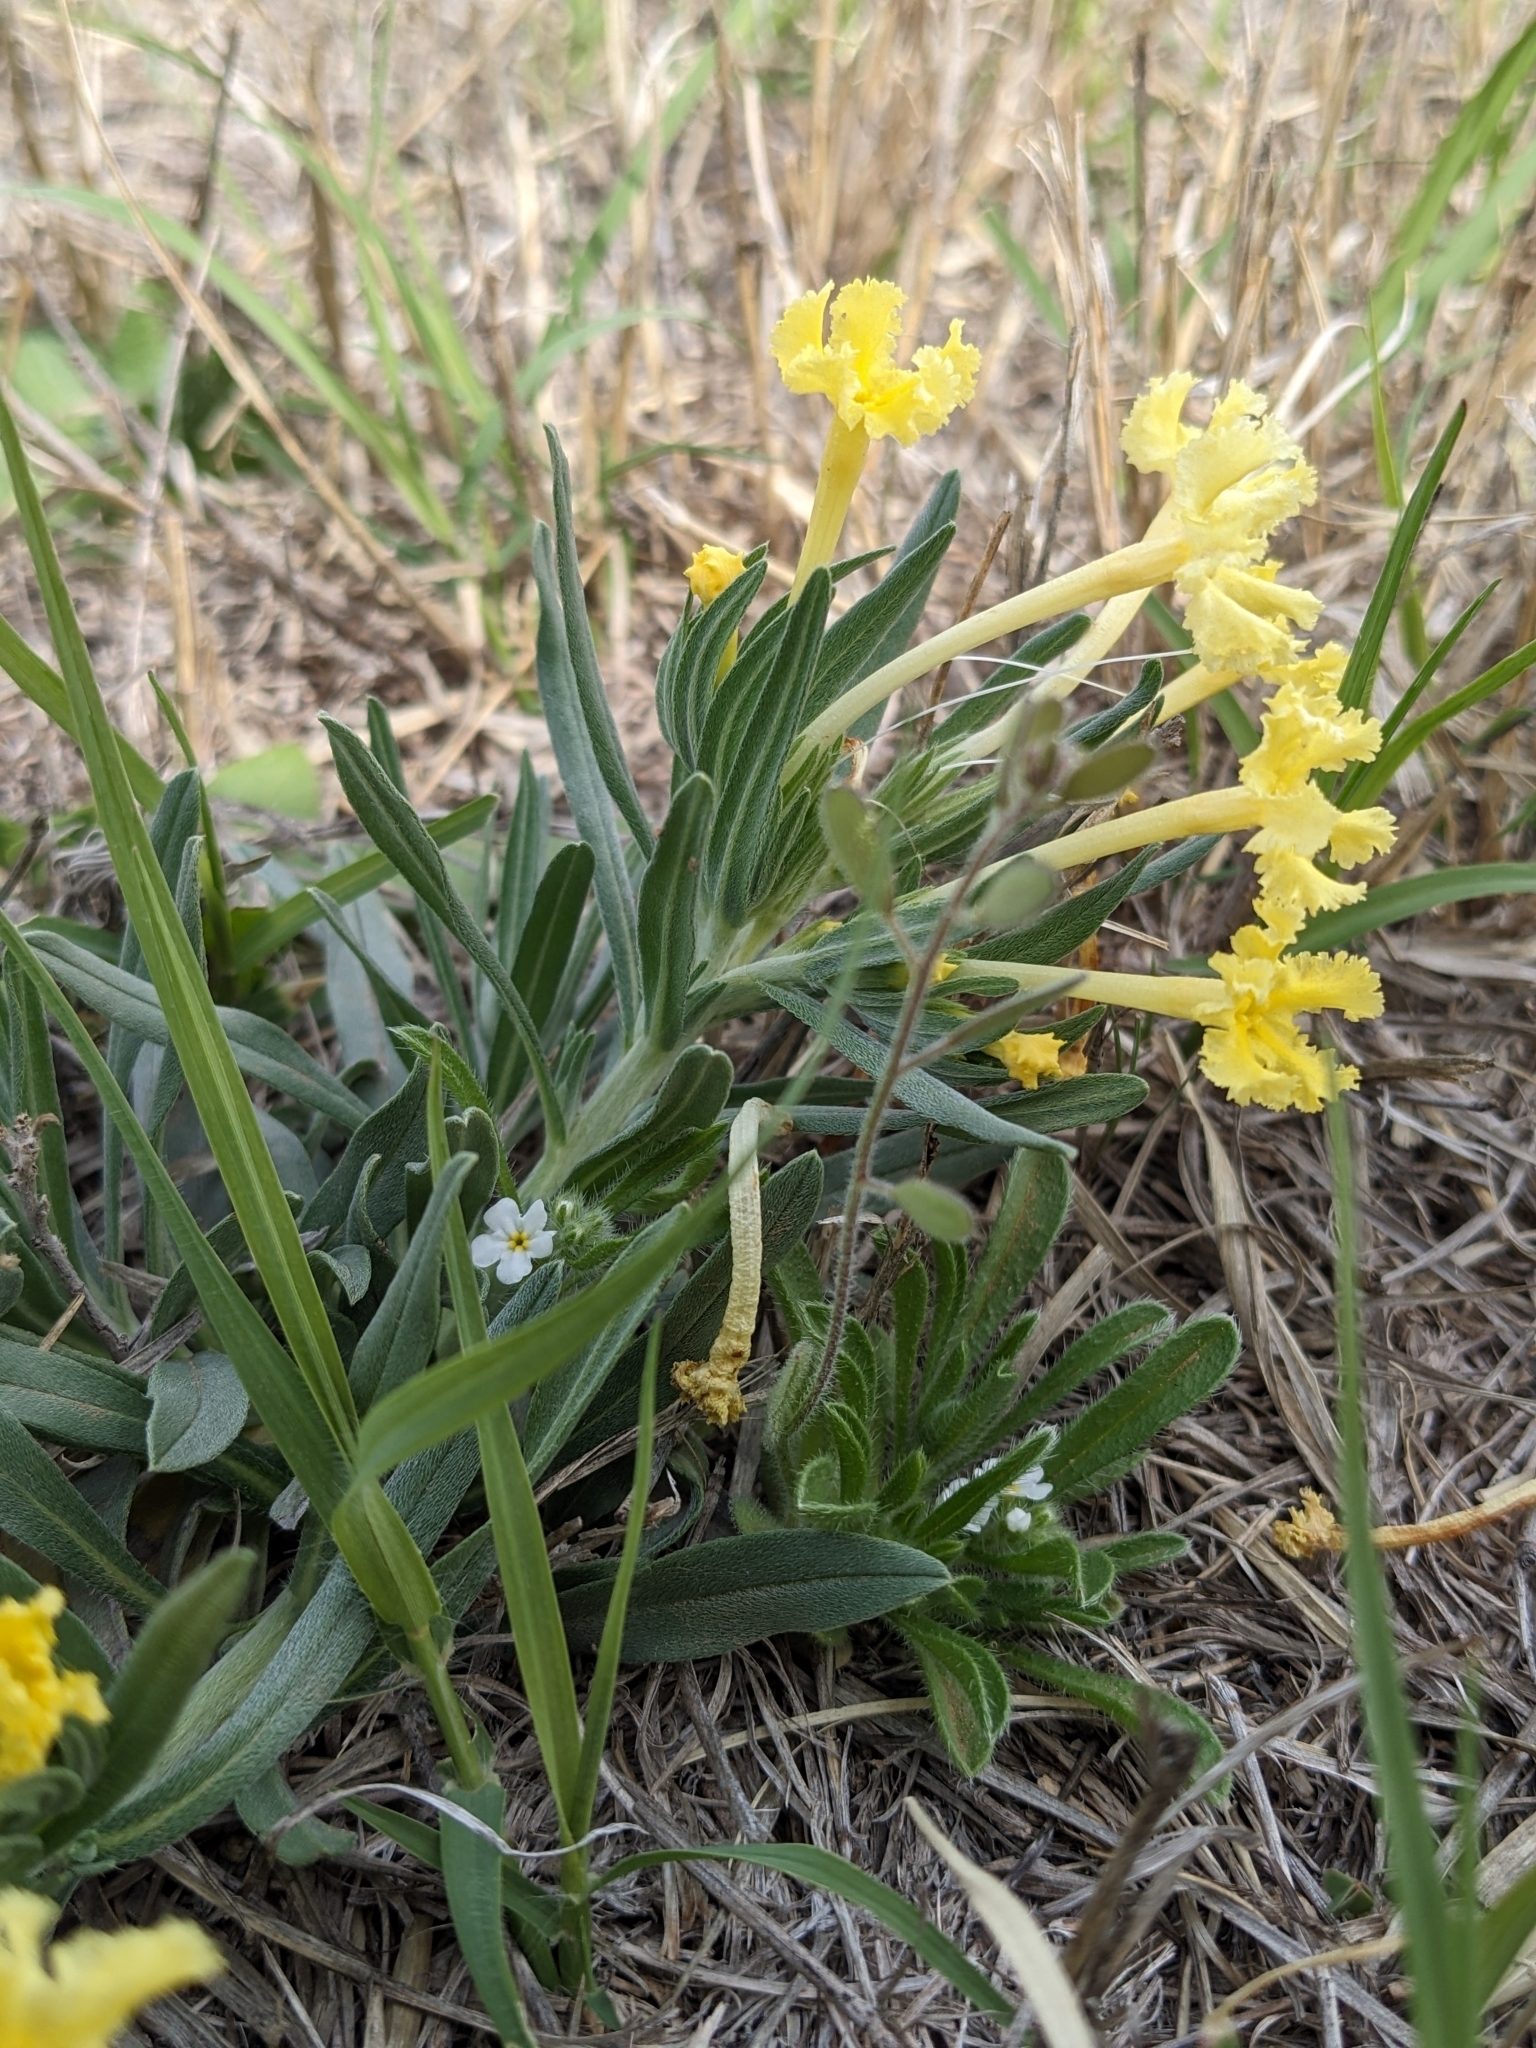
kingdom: Plantae
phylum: Tracheophyta
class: Magnoliopsida
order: Boraginales
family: Boraginaceae
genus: Lithospermum
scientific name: Lithospermum incisum
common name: Fringed gromwell
